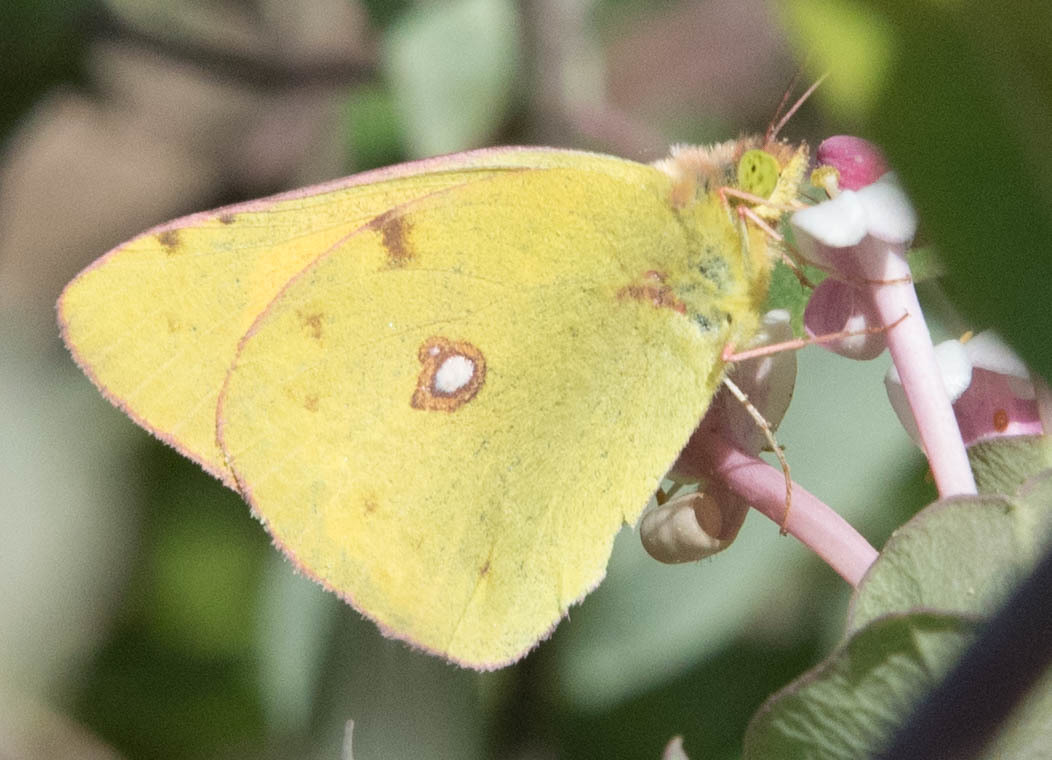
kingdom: Animalia
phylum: Arthropoda
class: Insecta
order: Lepidoptera
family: Pieridae
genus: Colias
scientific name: Colias croceus
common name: Clouded yellow
